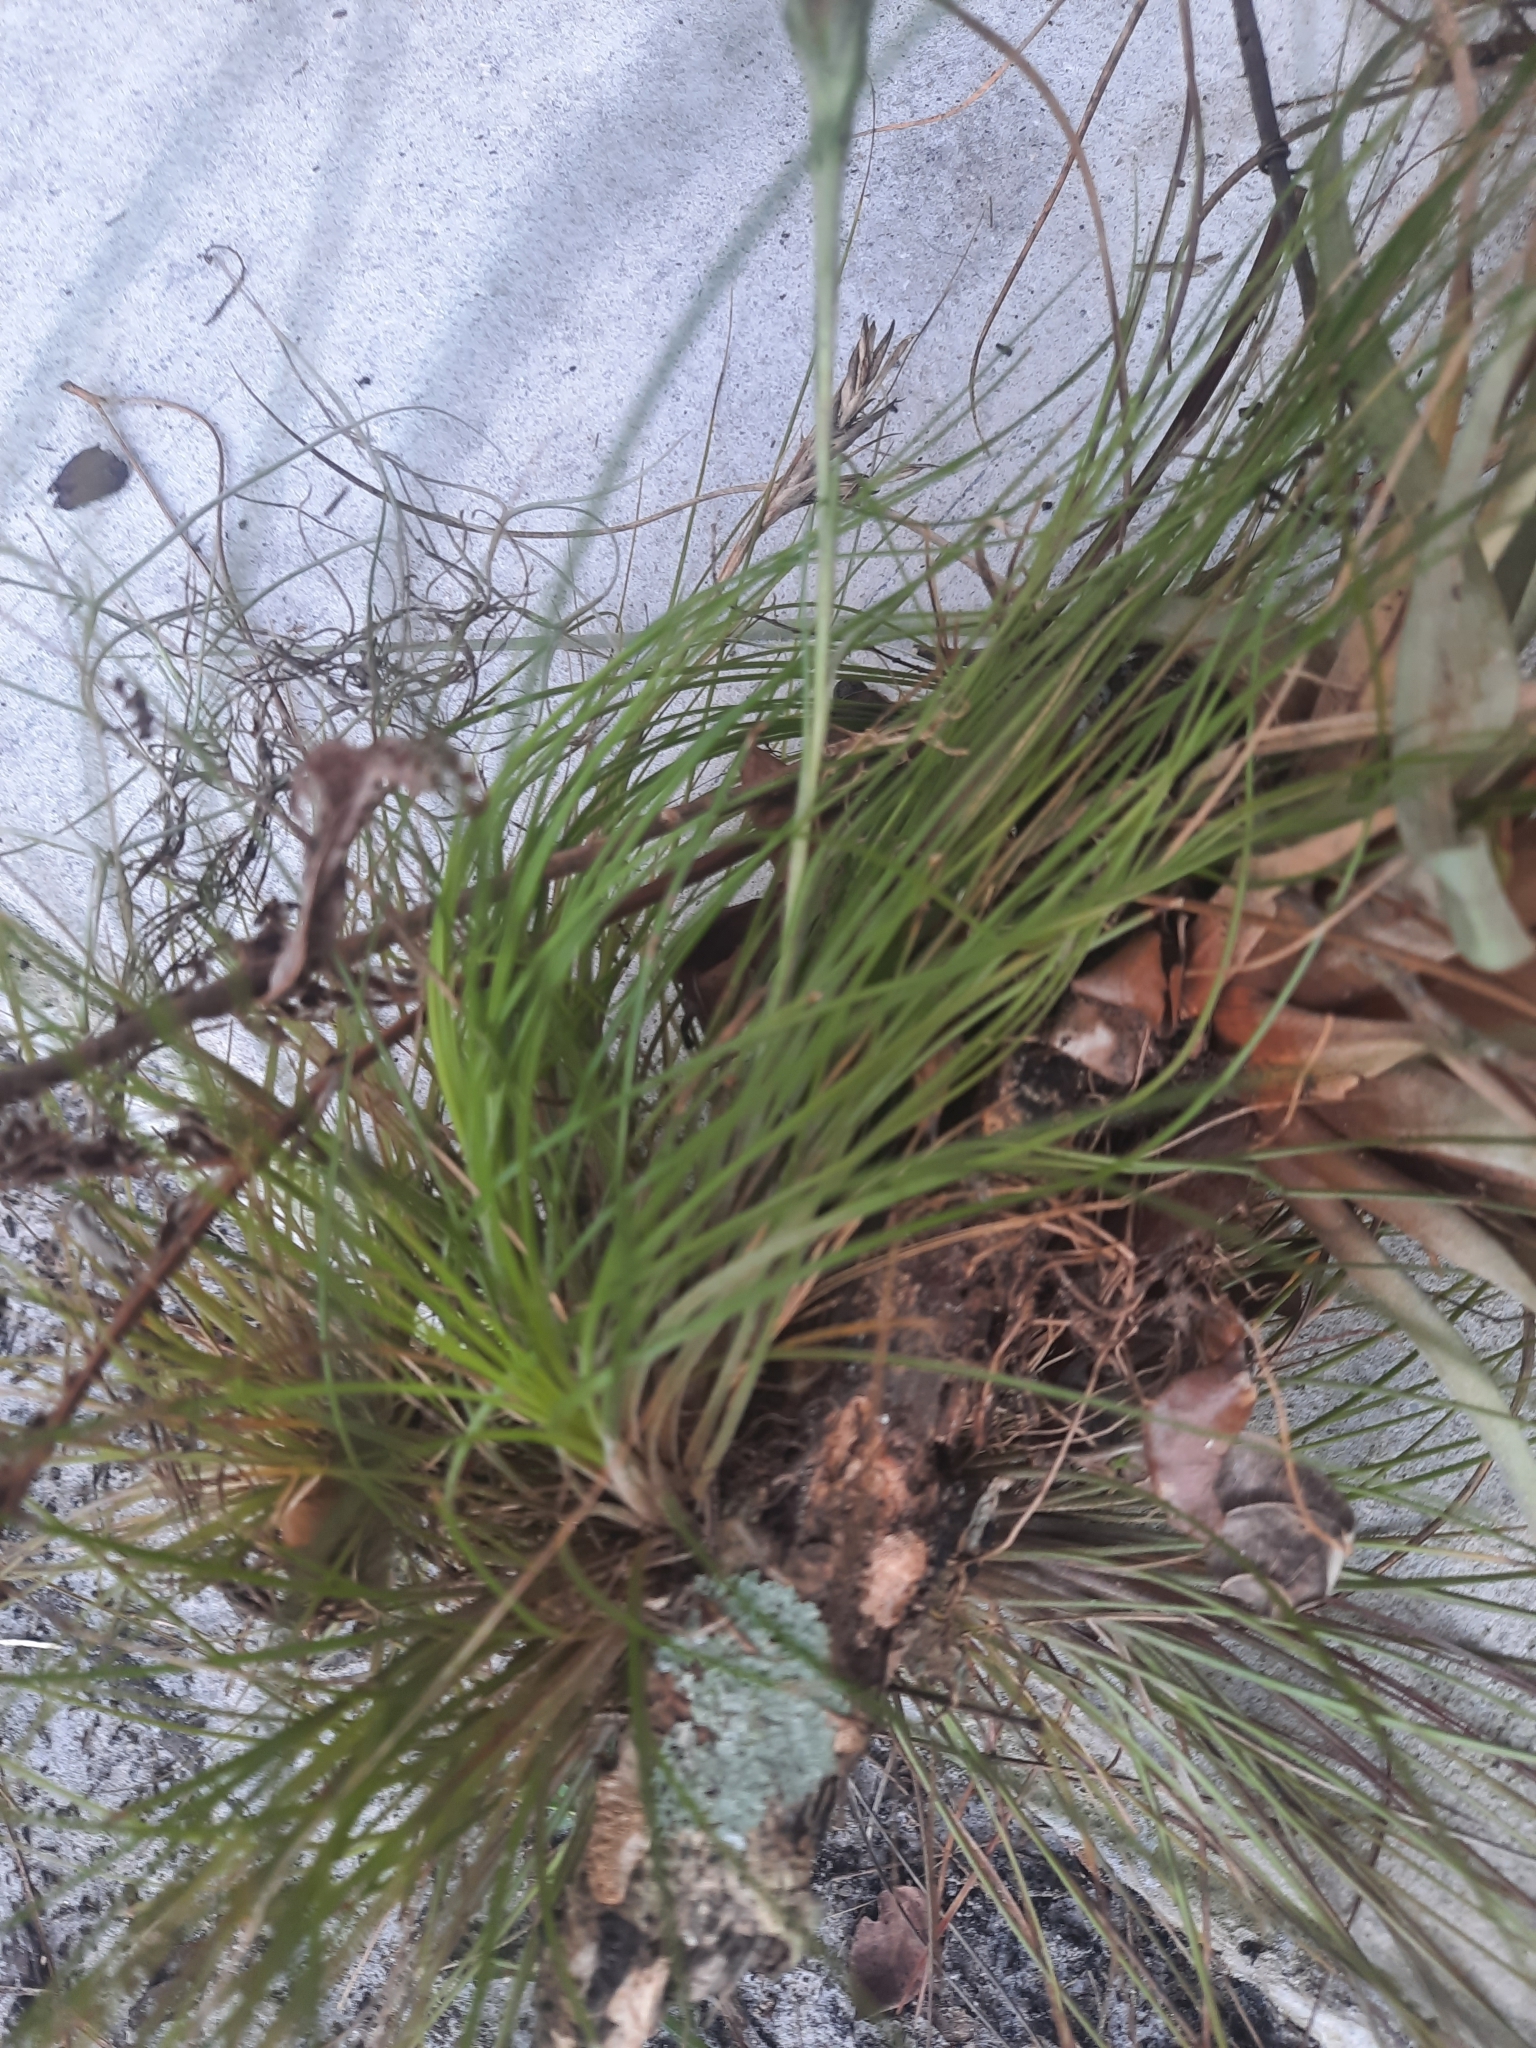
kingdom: Plantae
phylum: Tracheophyta
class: Liliopsida
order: Poales
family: Bromeliaceae
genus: Tillandsia
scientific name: Tillandsia setacea
